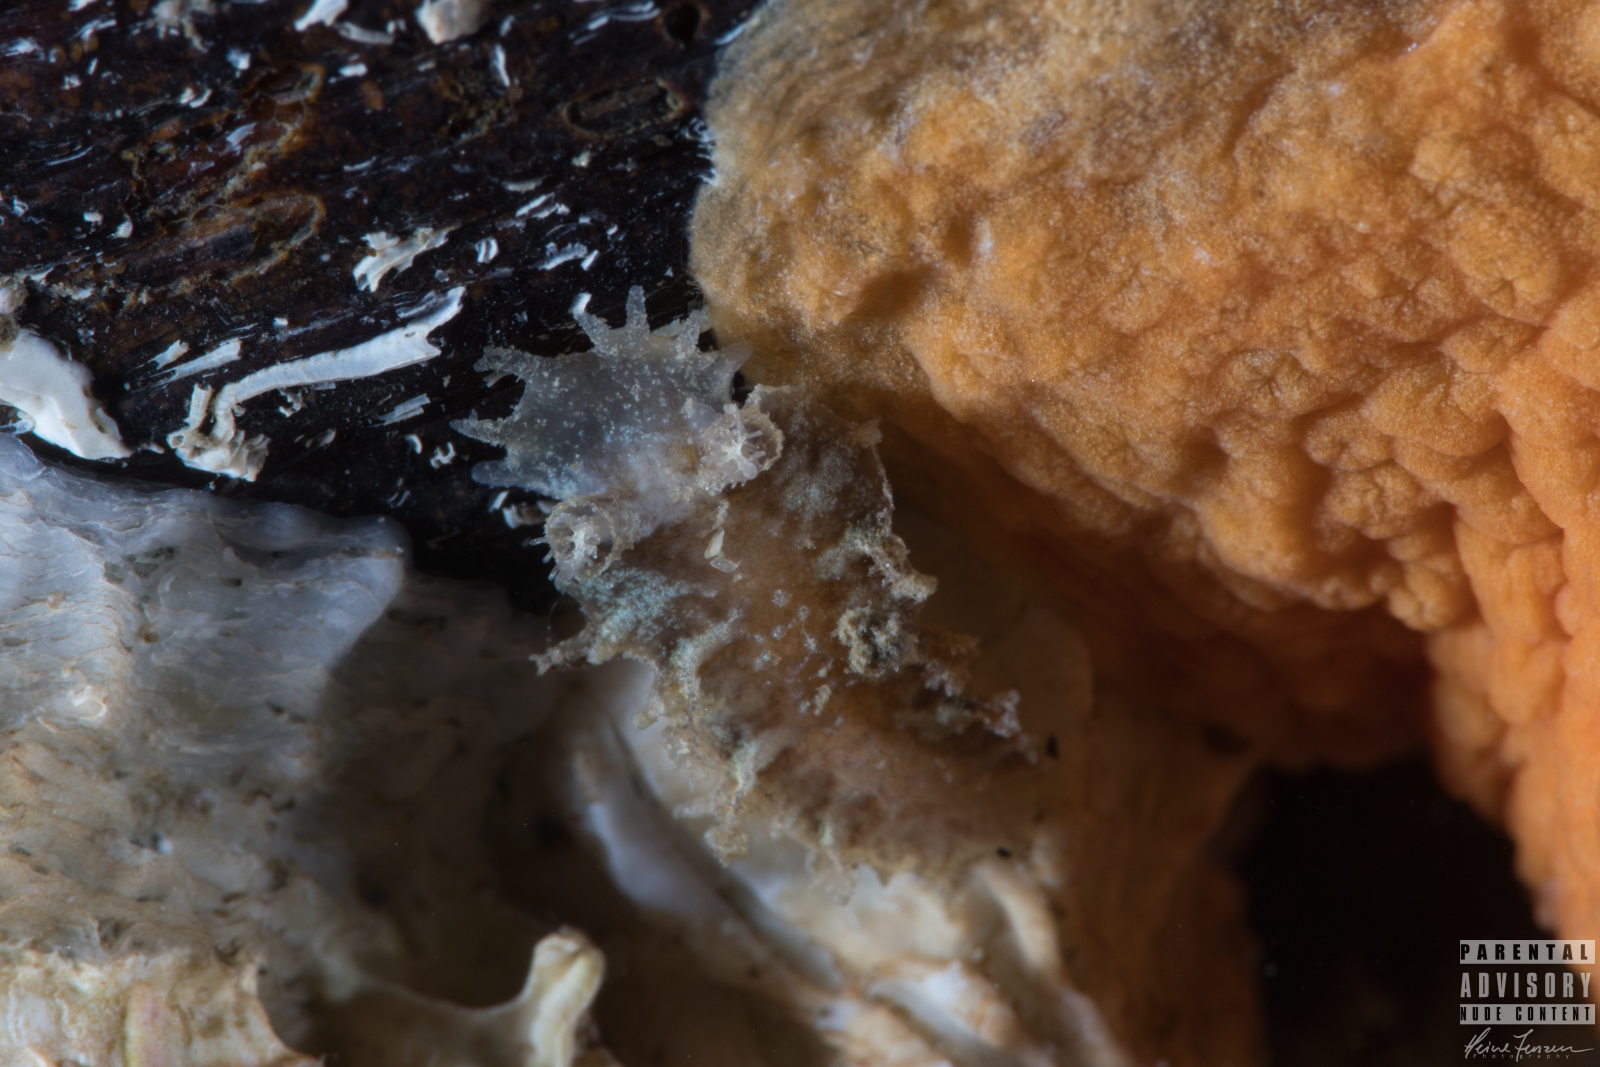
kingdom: Animalia
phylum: Mollusca
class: Gastropoda
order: Nudibranchia
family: Tritoniidae
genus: Duvaucelia
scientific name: Duvaucelia plebeia
